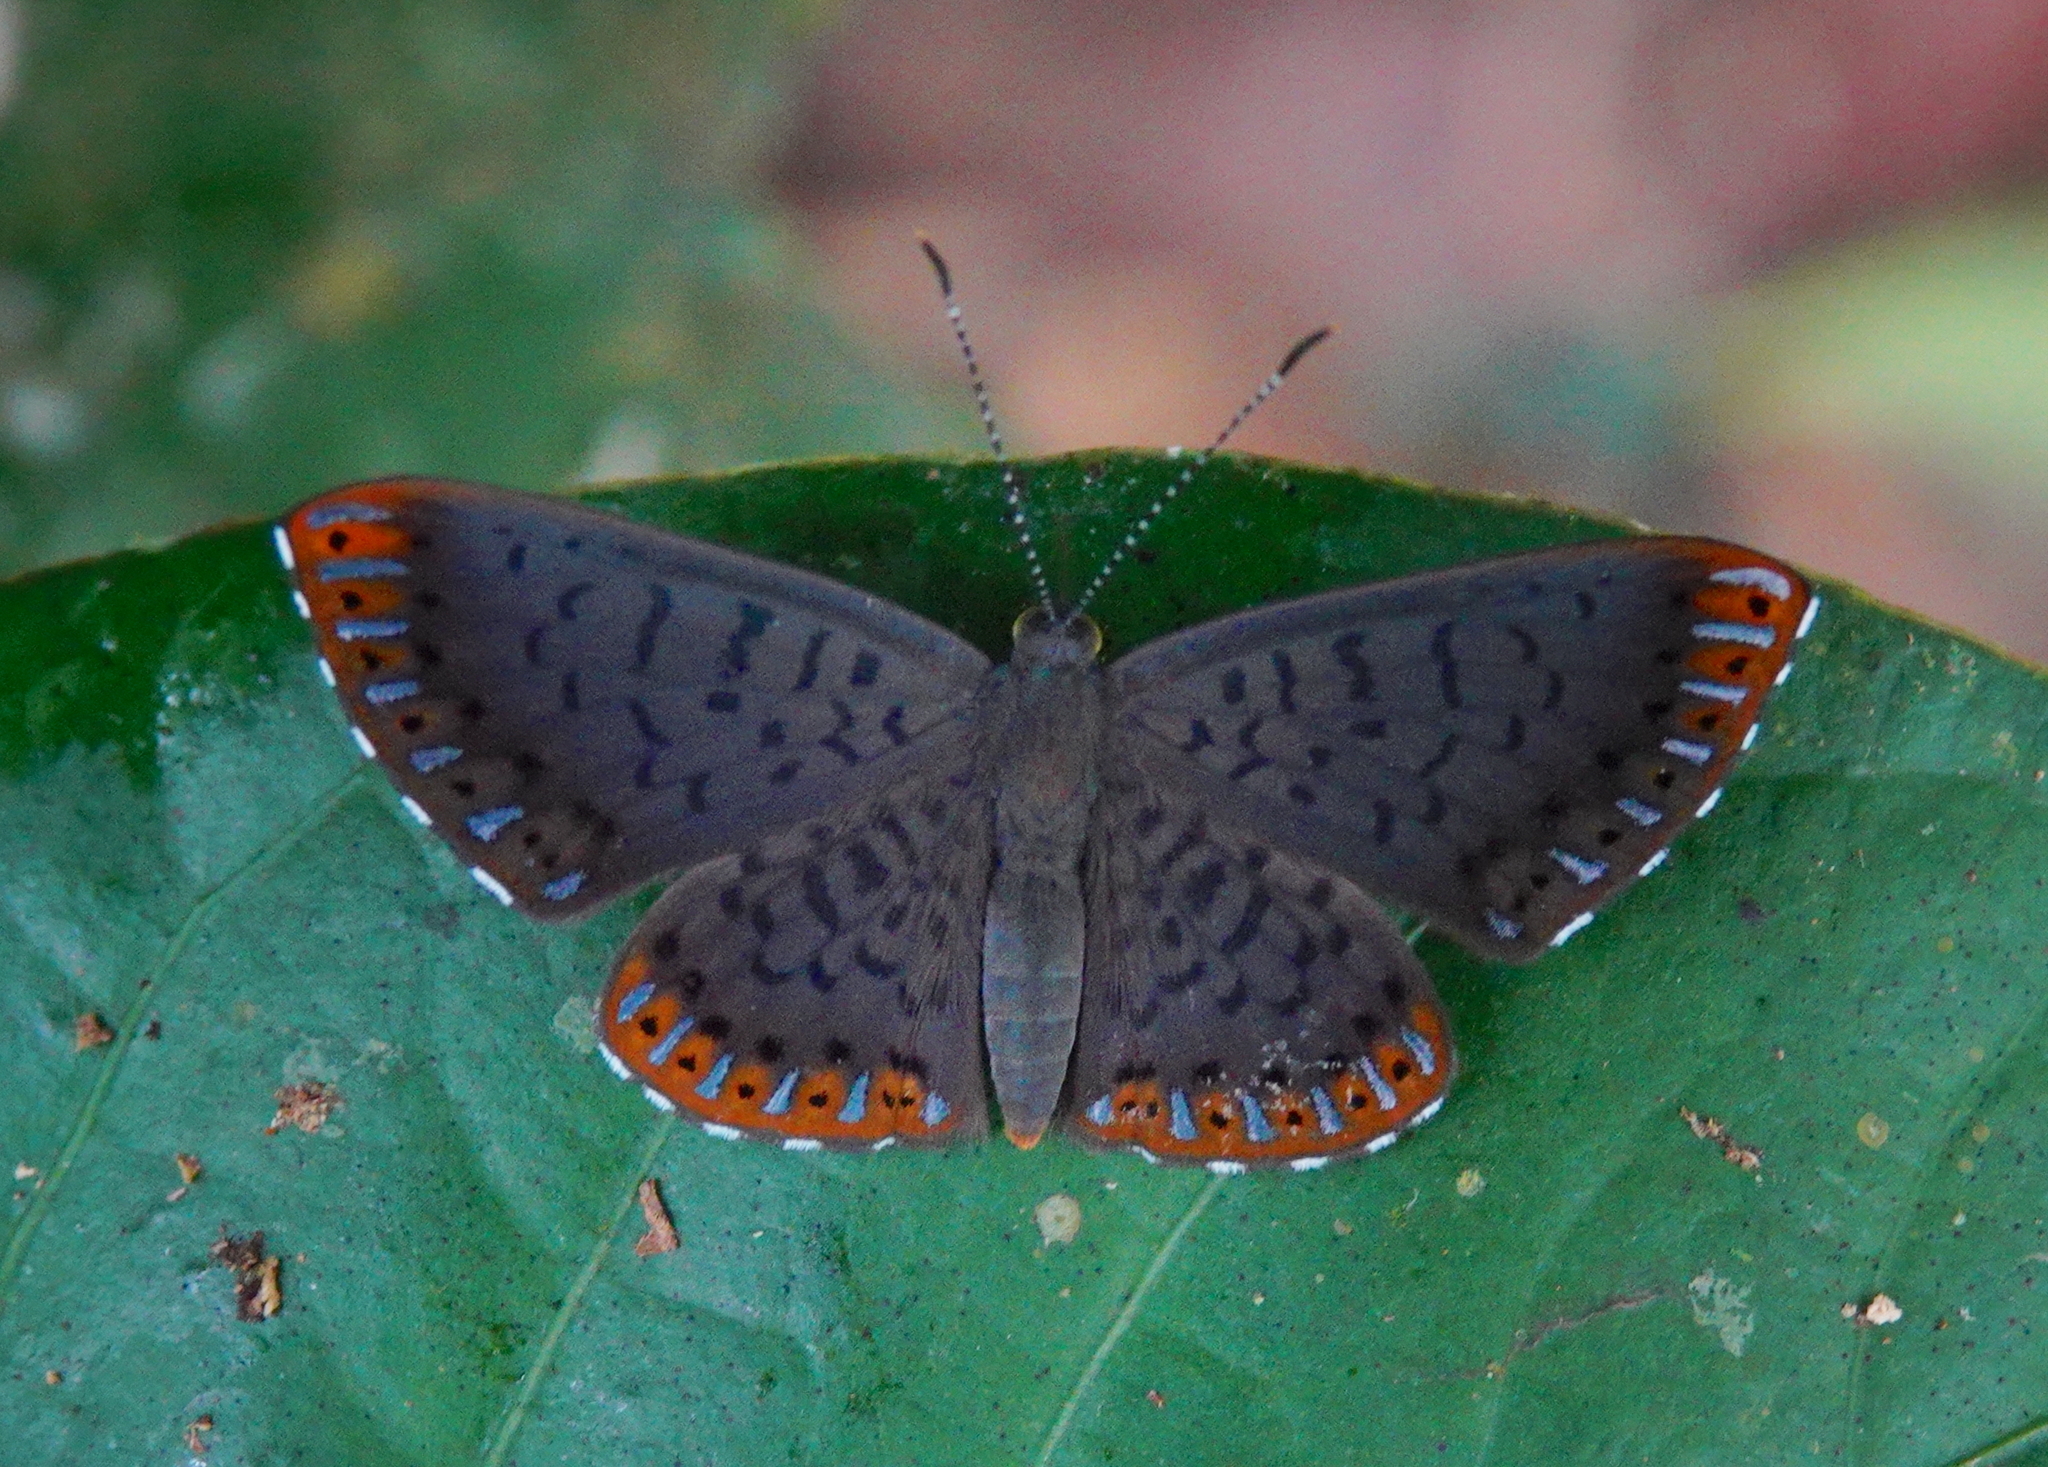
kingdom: Animalia
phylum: Arthropoda
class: Insecta
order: Lepidoptera
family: Riodinidae
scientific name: Riodinidae
